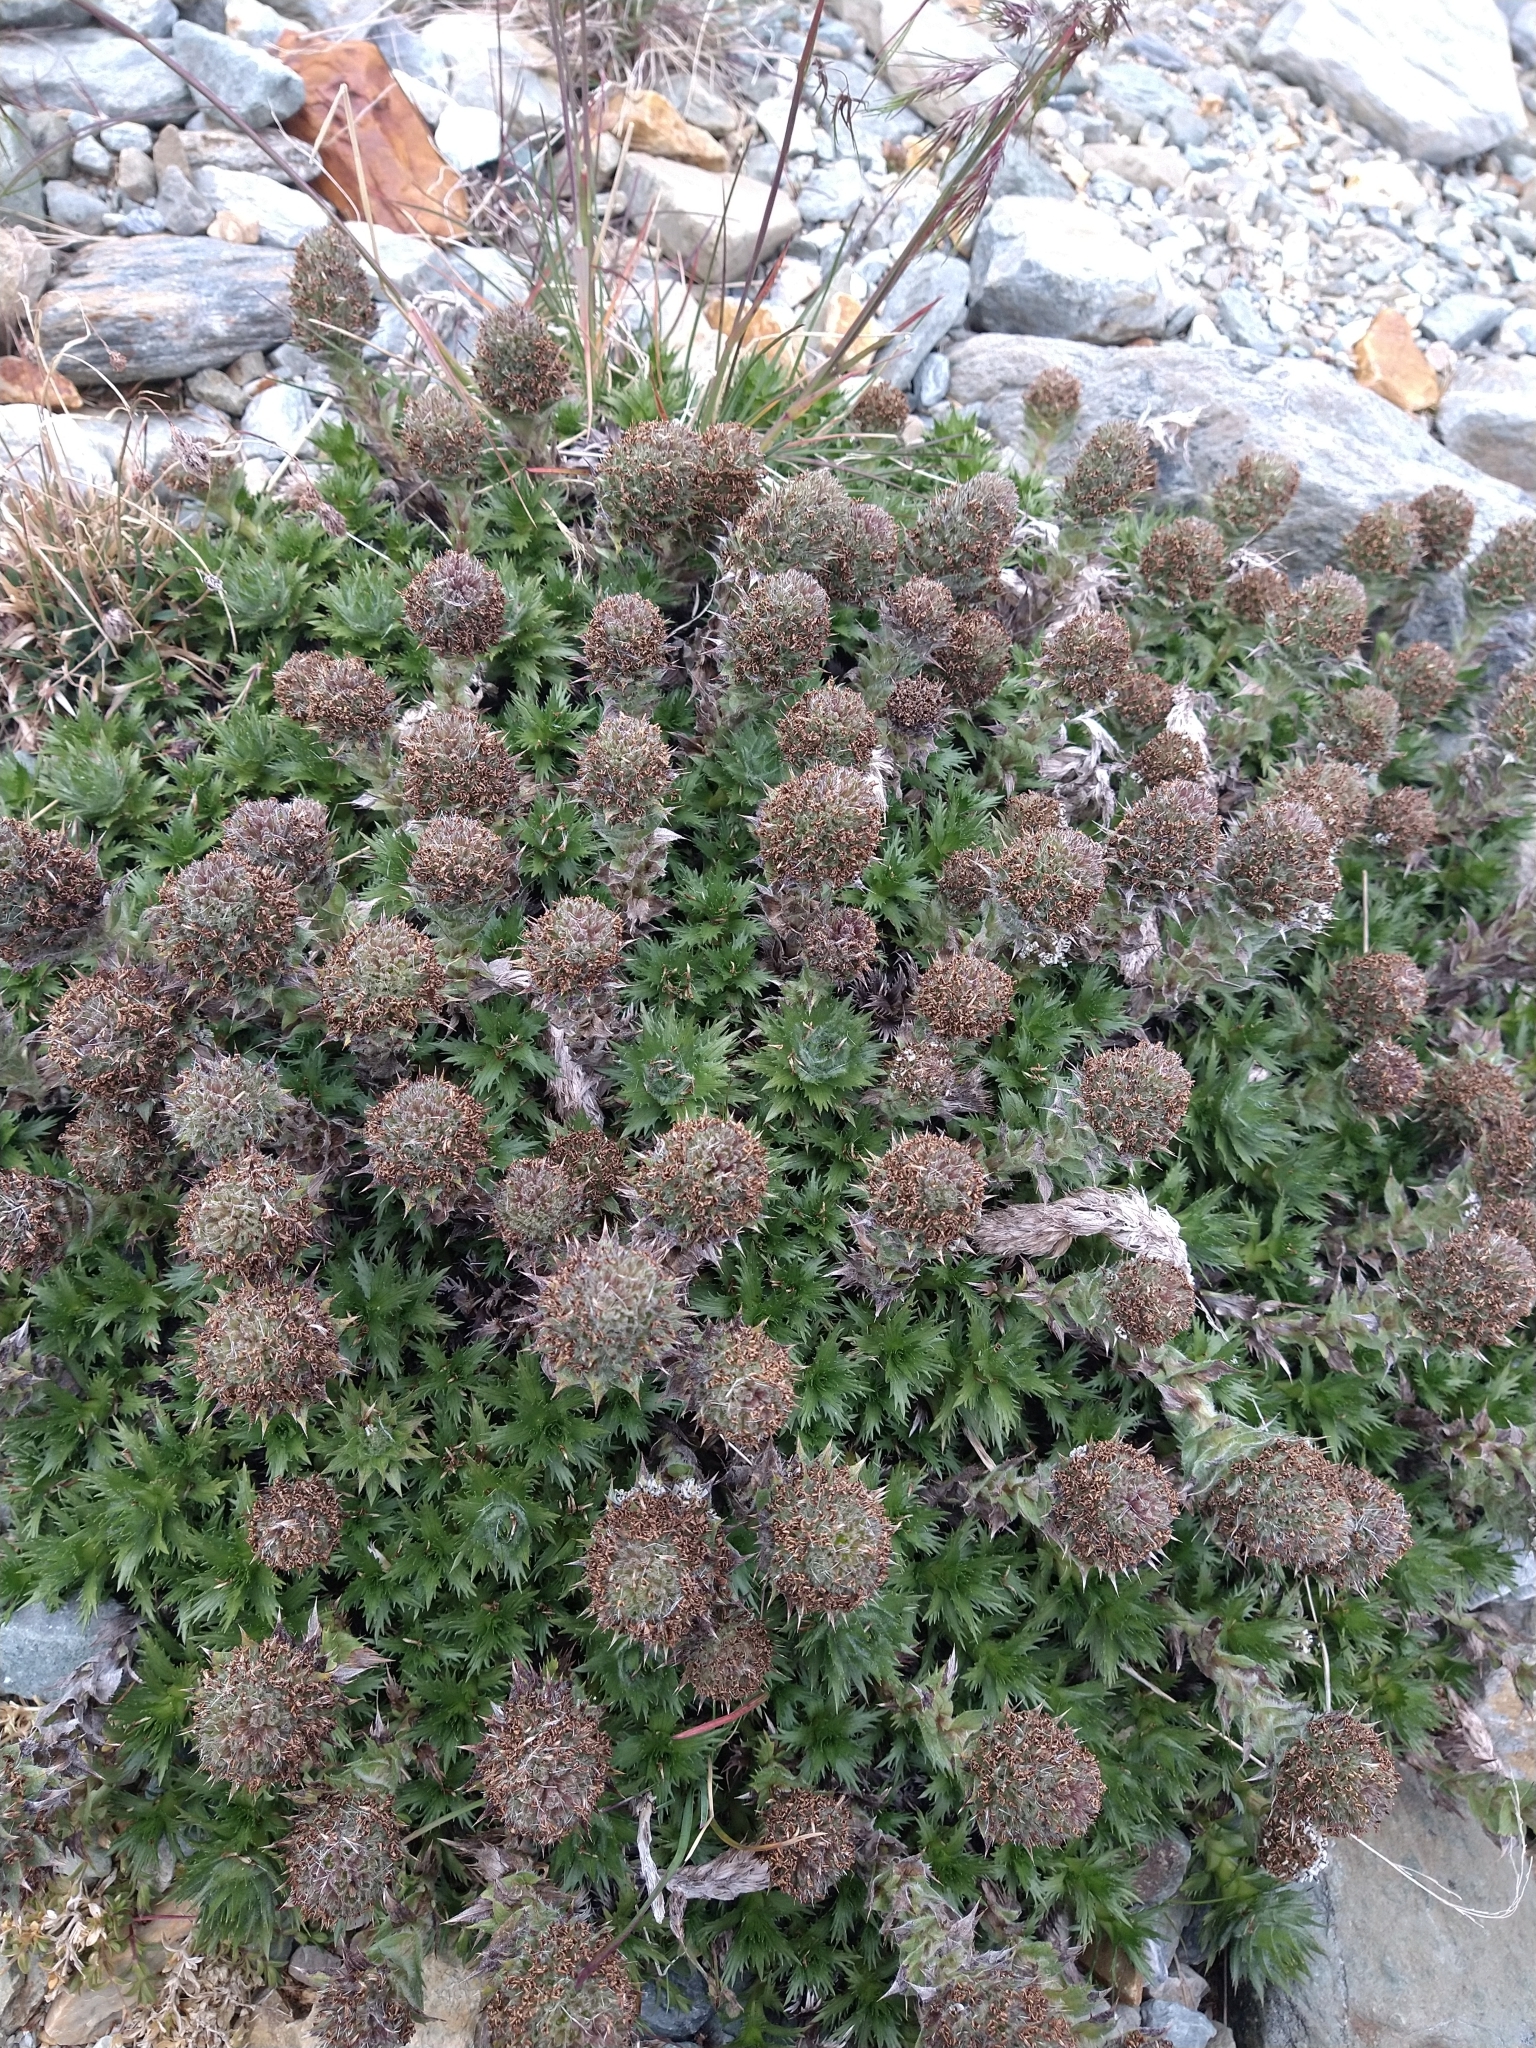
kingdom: Plantae
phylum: Tracheophyta
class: Magnoliopsida
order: Asterales
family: Asteraceae
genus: Nassauvia
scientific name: Nassauvia magellanica
